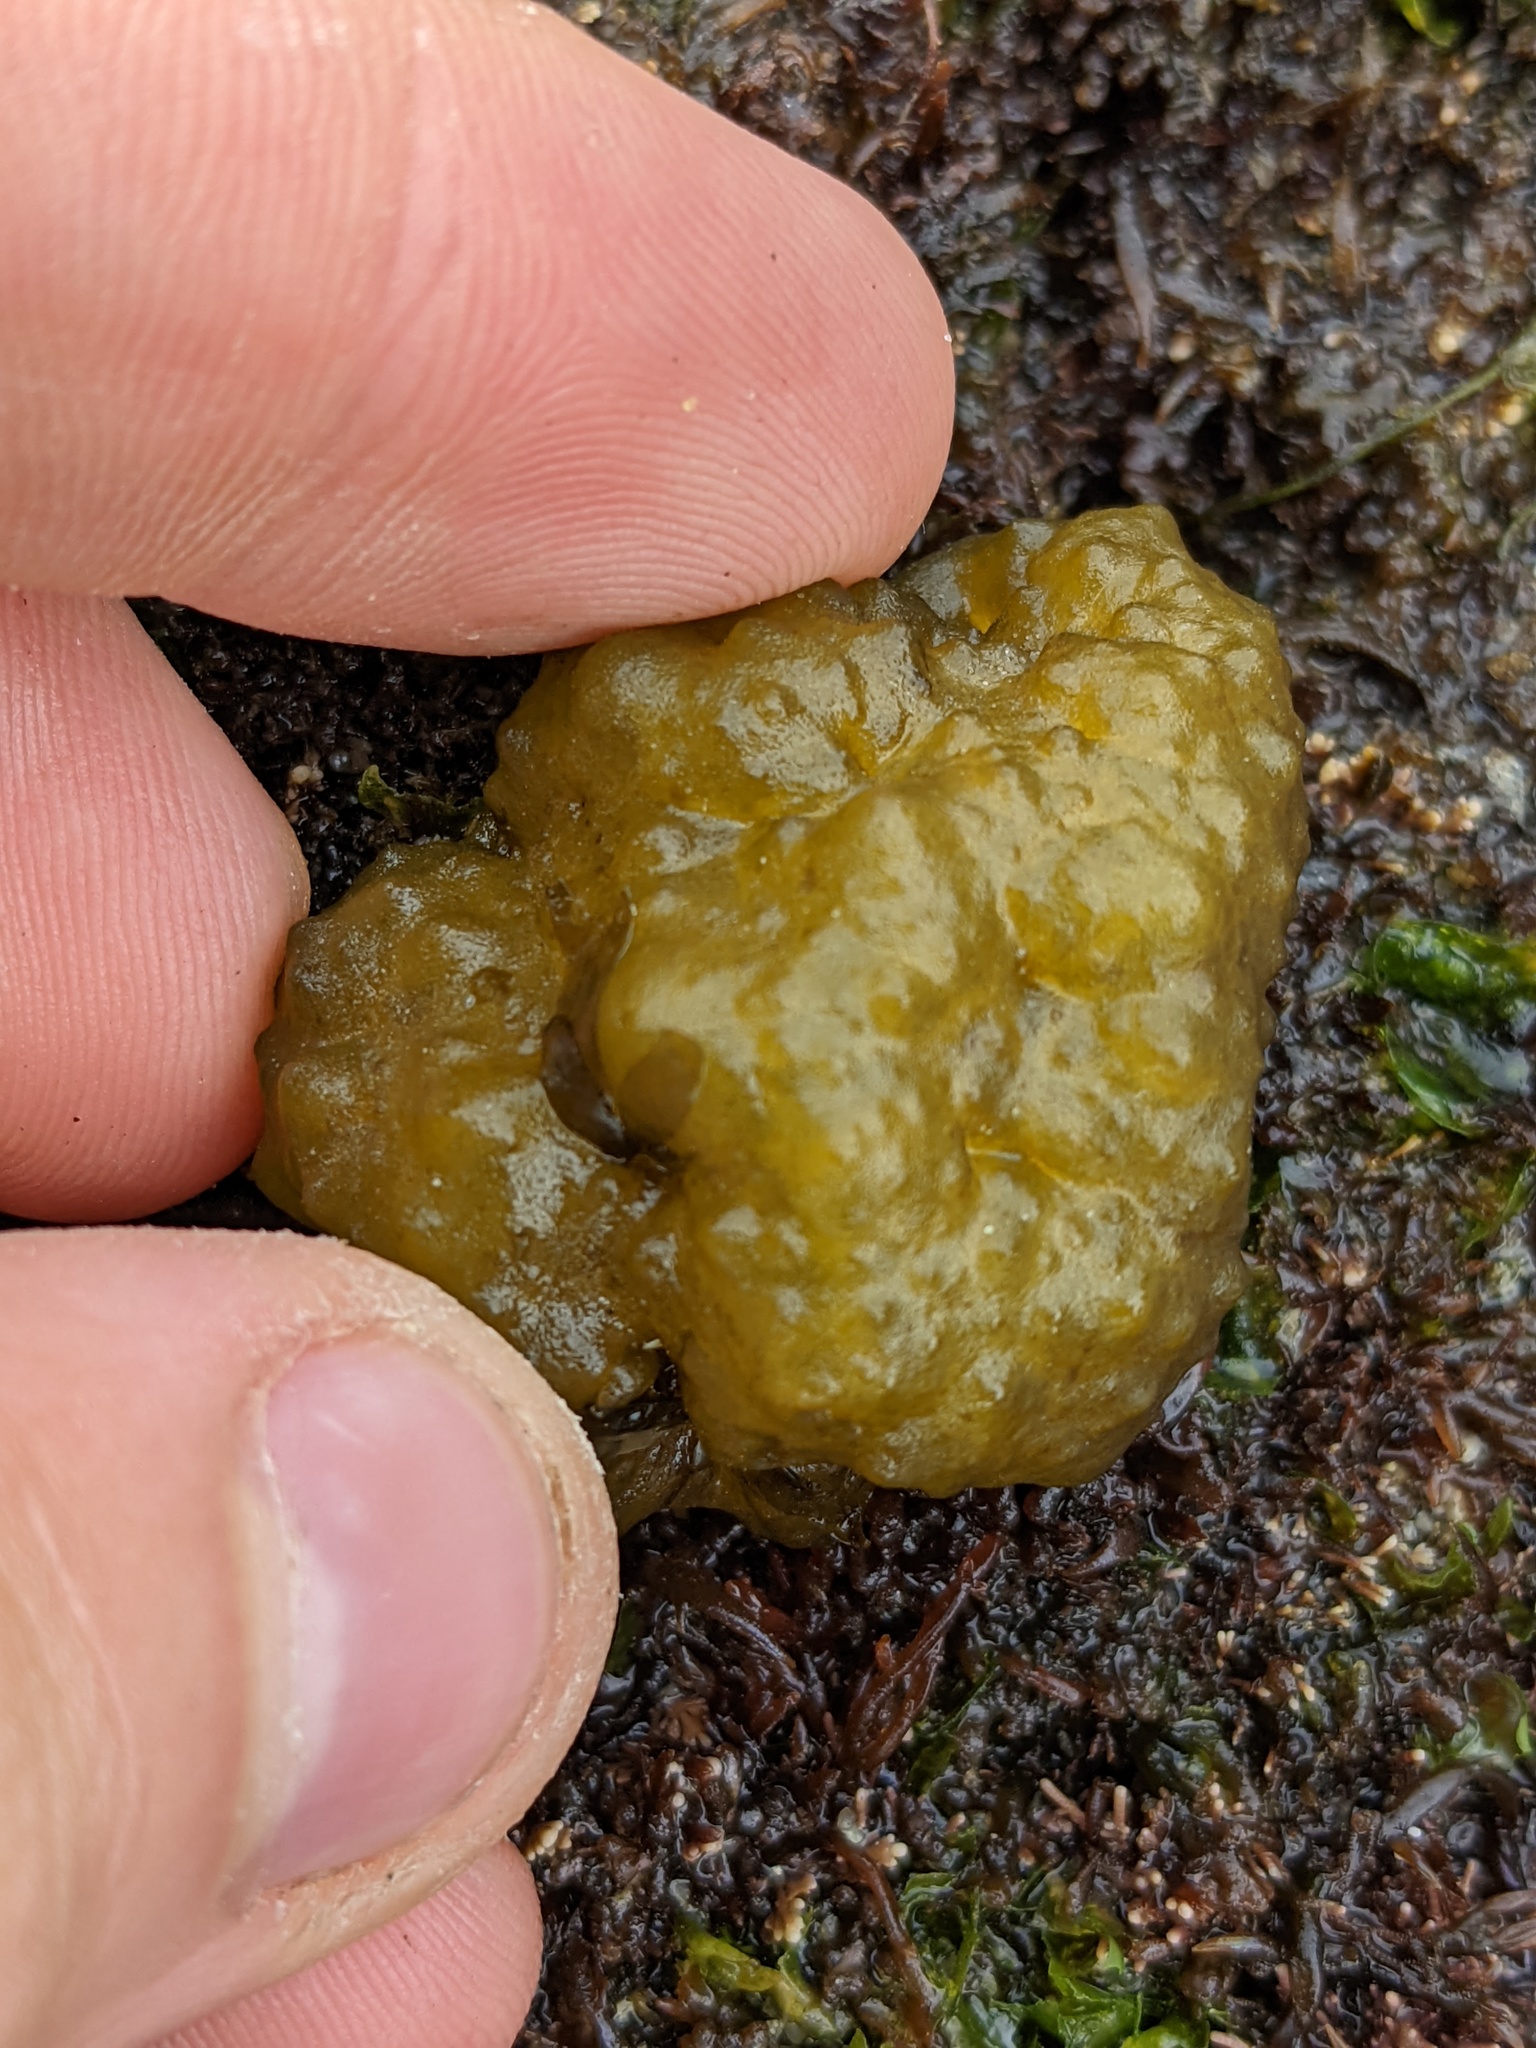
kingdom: Chromista
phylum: Ochrophyta
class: Phaeophyceae
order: Scytosiphonales
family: Scytosiphonaceae
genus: Colpomenia
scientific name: Colpomenia
